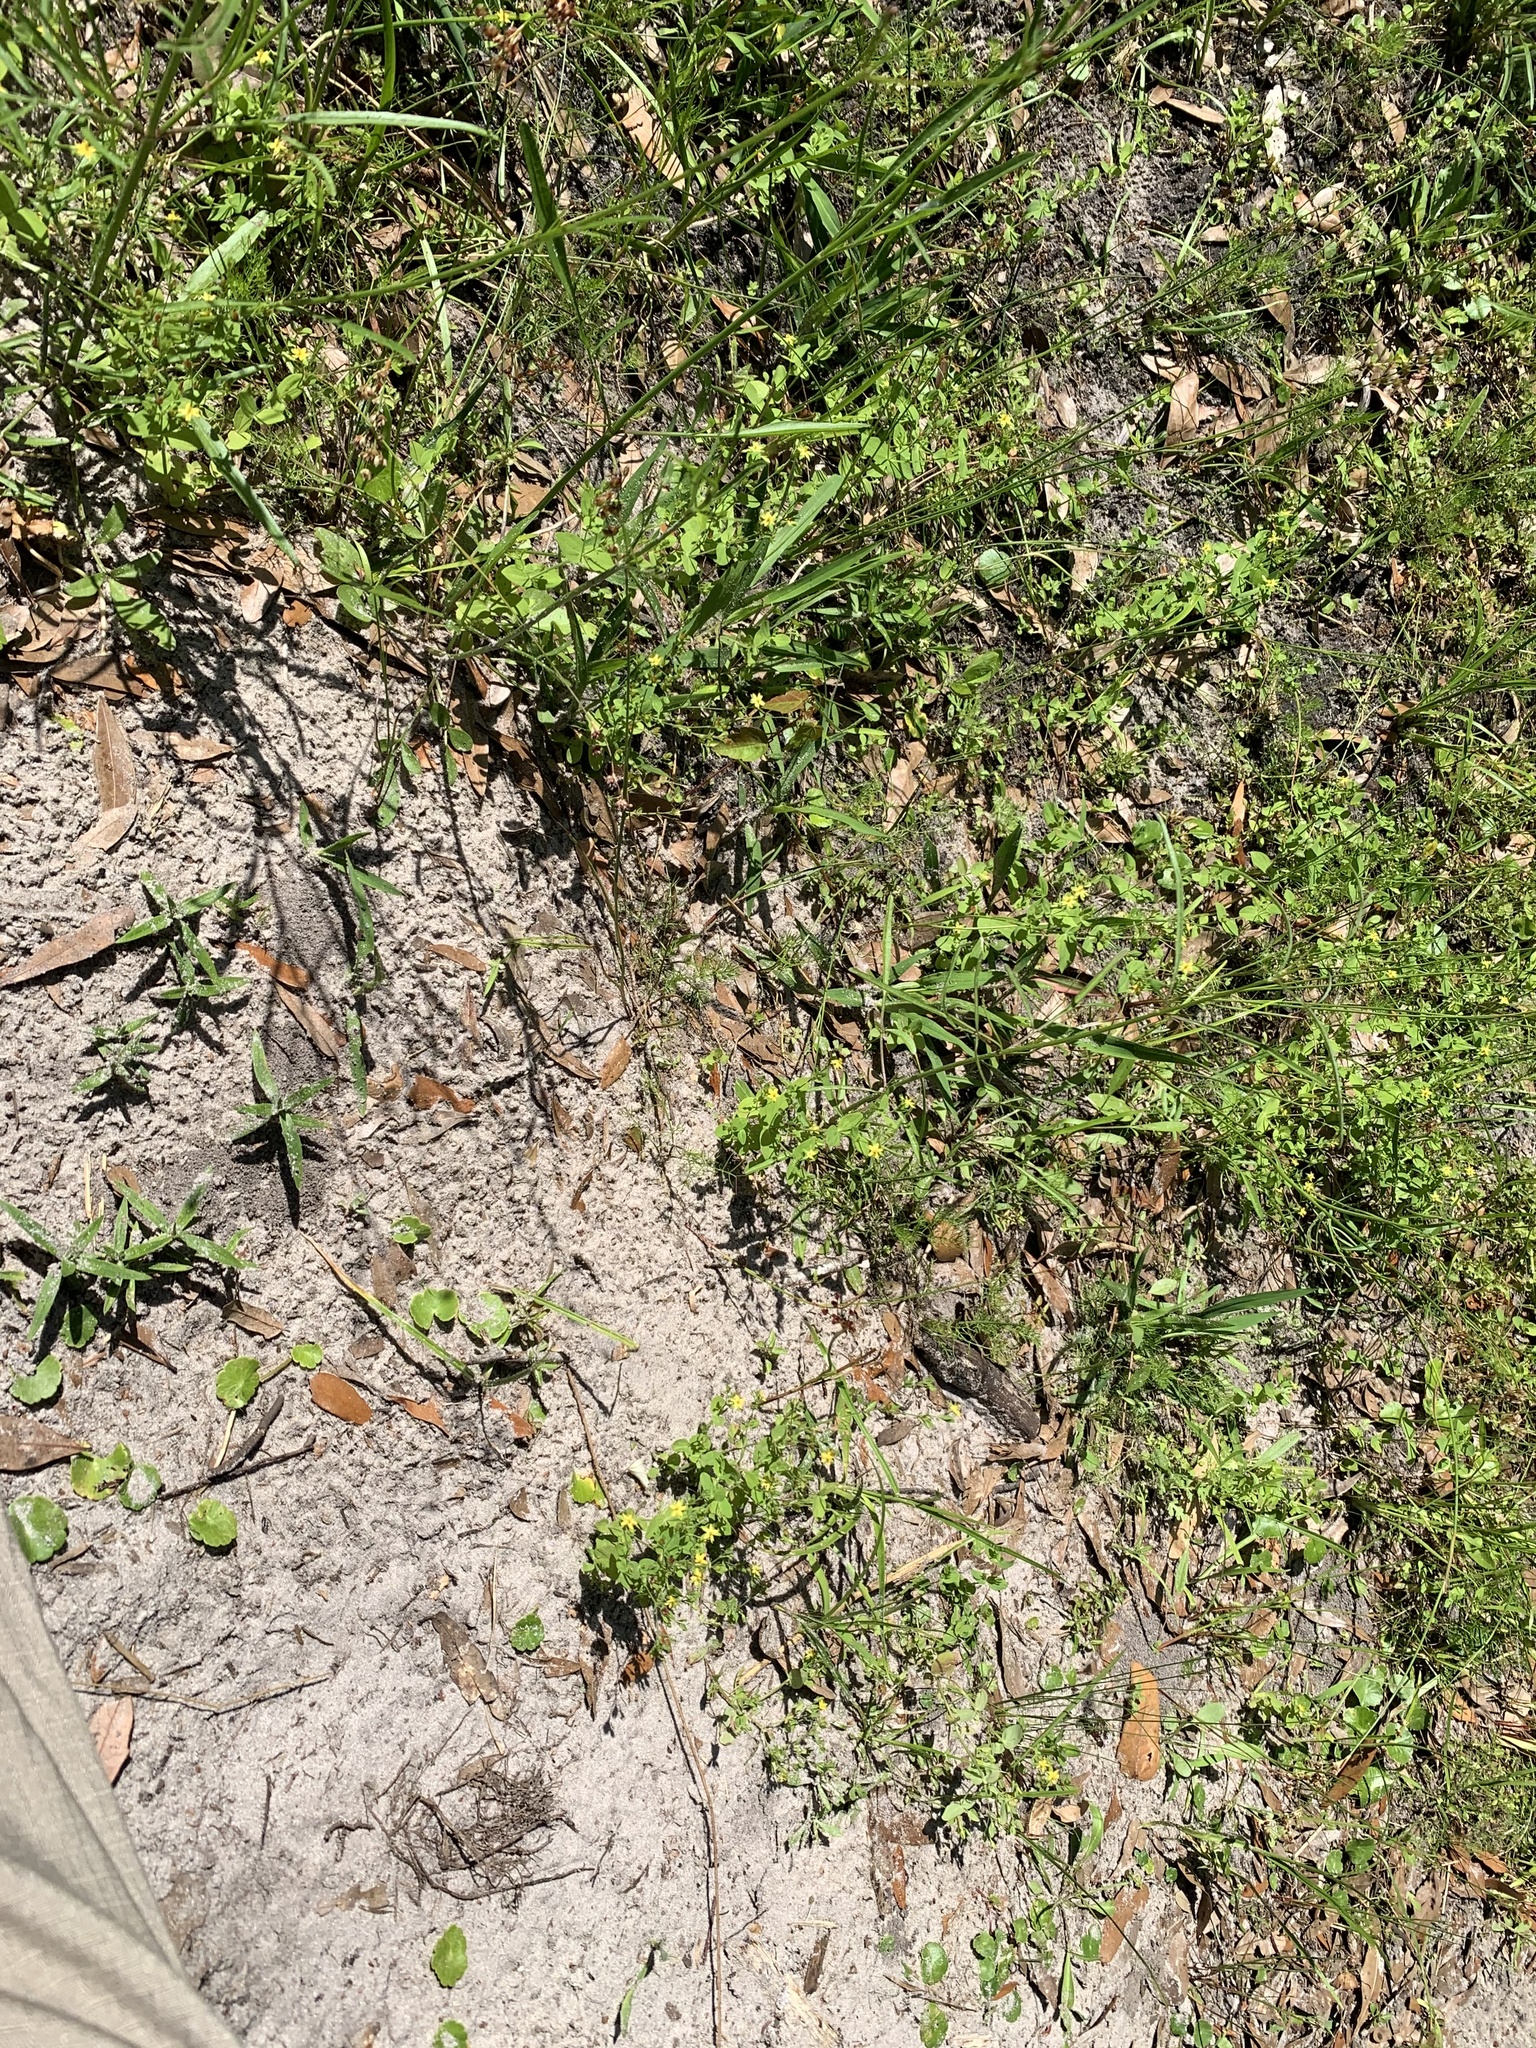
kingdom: Plantae
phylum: Tracheophyta
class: Magnoliopsida
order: Malpighiales
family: Hypericaceae
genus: Hypericum
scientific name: Hypericum mutilum
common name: Dwarf st. john's-wort
